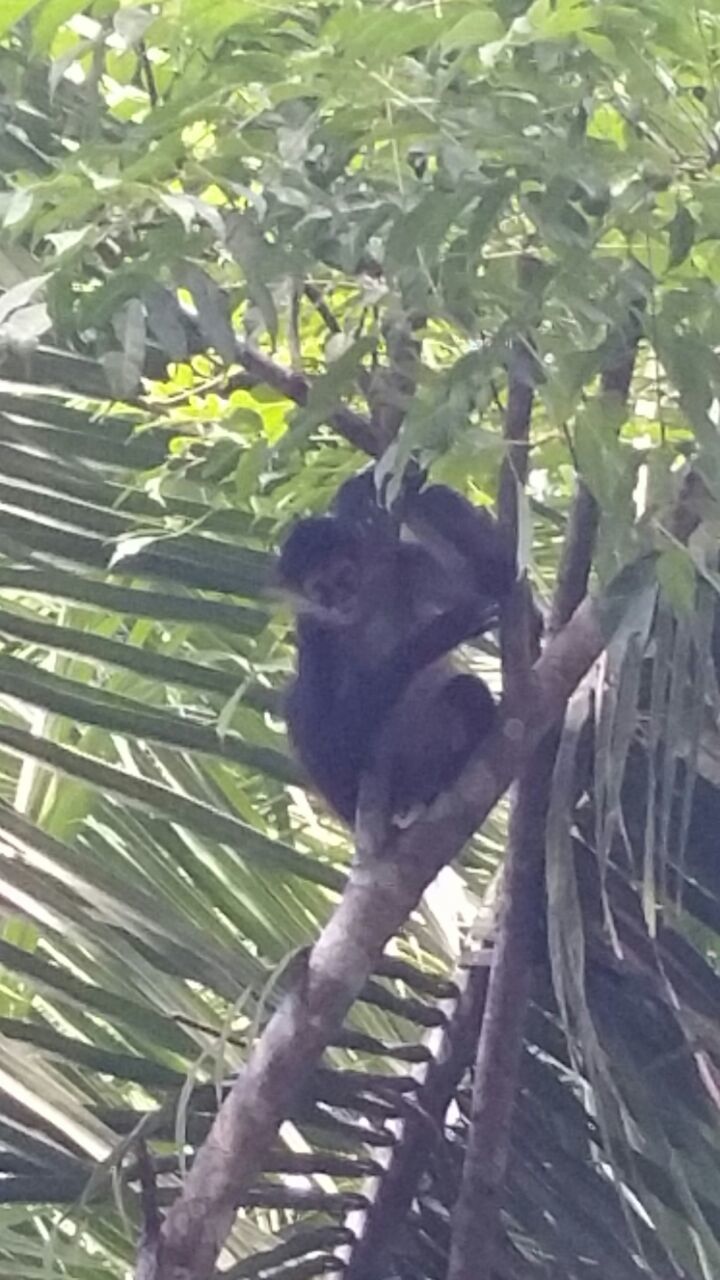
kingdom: Animalia
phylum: Chordata
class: Mammalia
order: Primates
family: Atelidae
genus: Ateles
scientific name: Ateles geoffroyi
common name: Black-handed spider monkey
